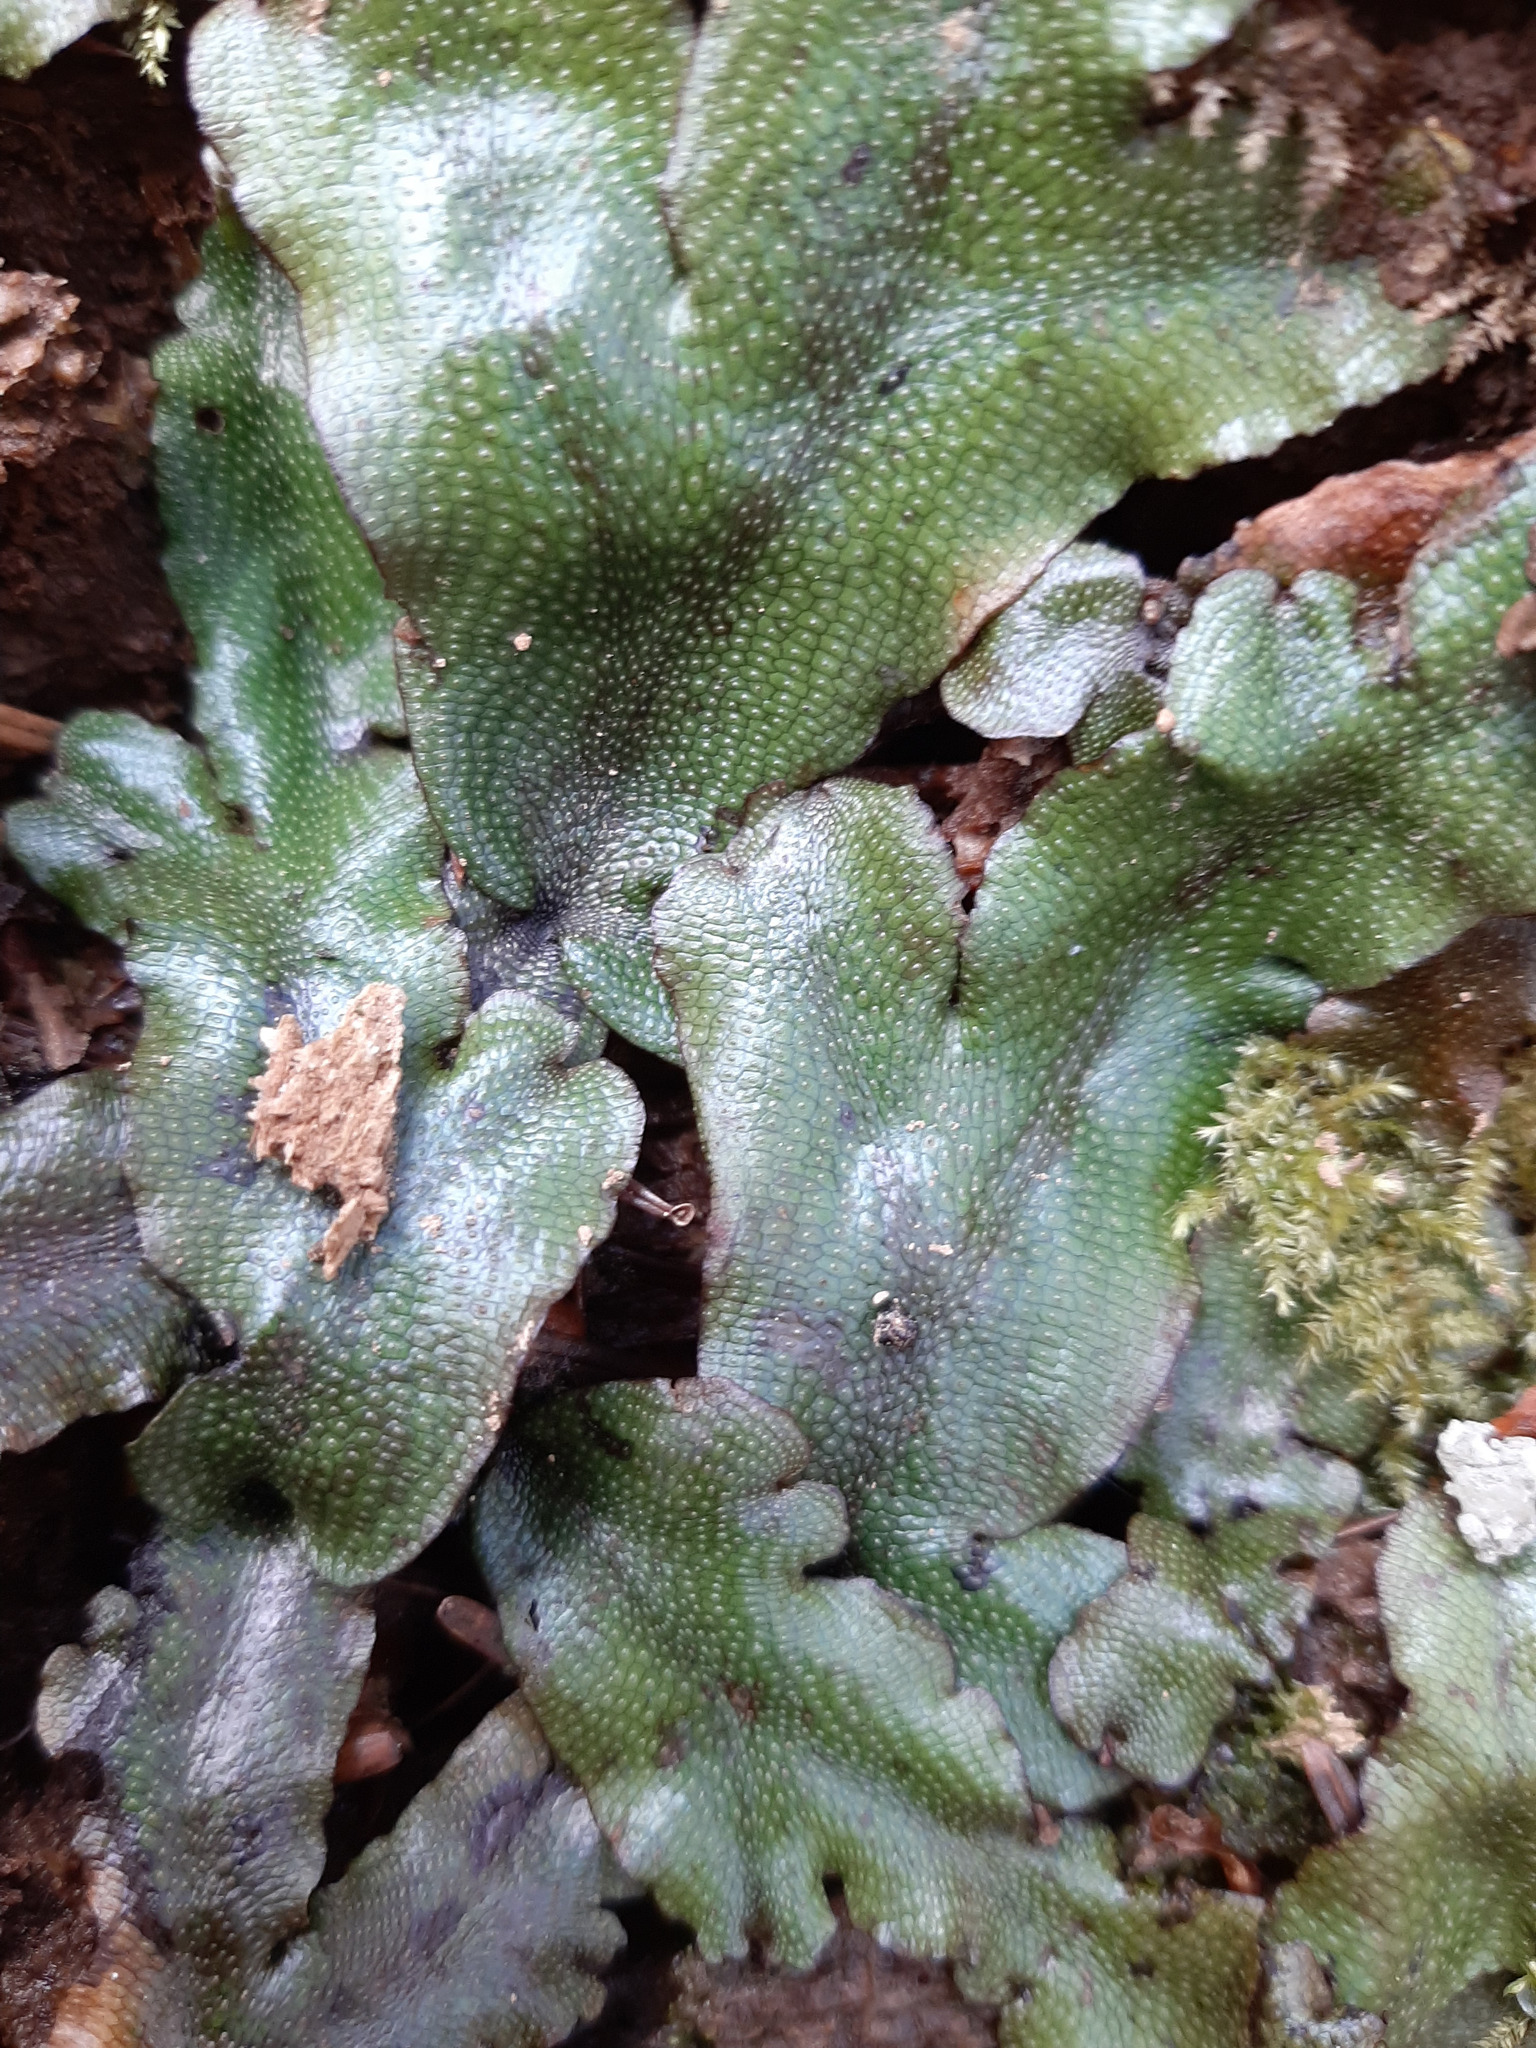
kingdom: Plantae
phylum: Marchantiophyta
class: Marchantiopsida
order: Marchantiales
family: Conocephalaceae
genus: Conocephalum
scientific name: Conocephalum conicum
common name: Great scented liverwort
